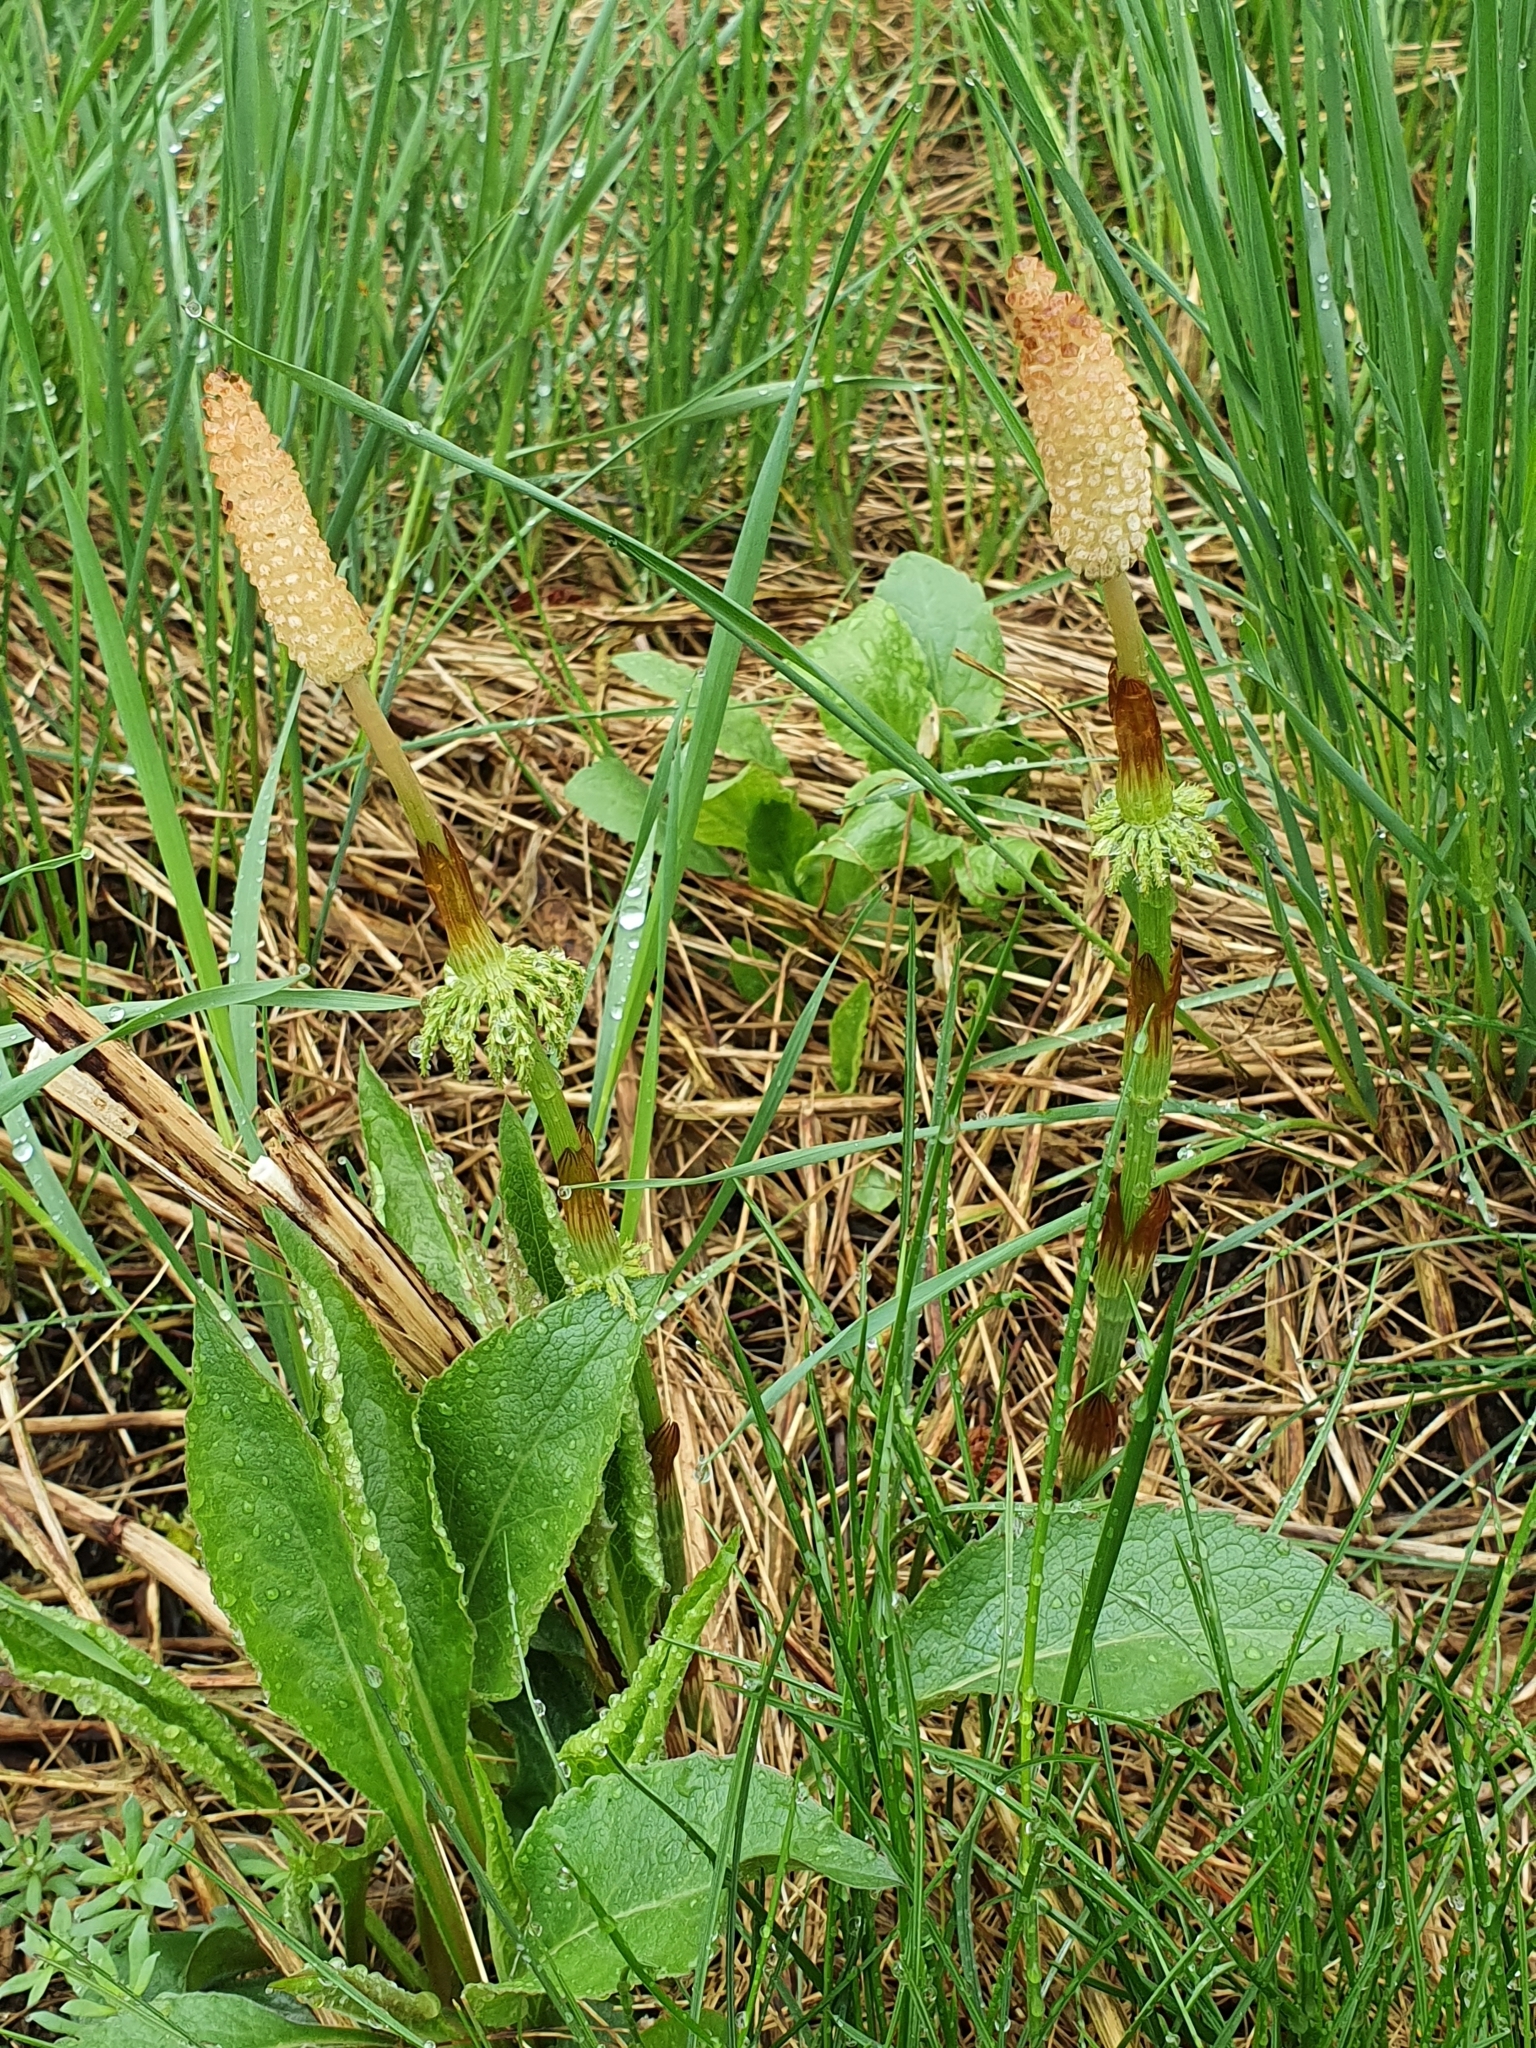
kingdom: Plantae
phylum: Tracheophyta
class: Polypodiopsida
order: Equisetales
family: Equisetaceae
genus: Equisetum
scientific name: Equisetum sylvaticum
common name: Wood horsetail
